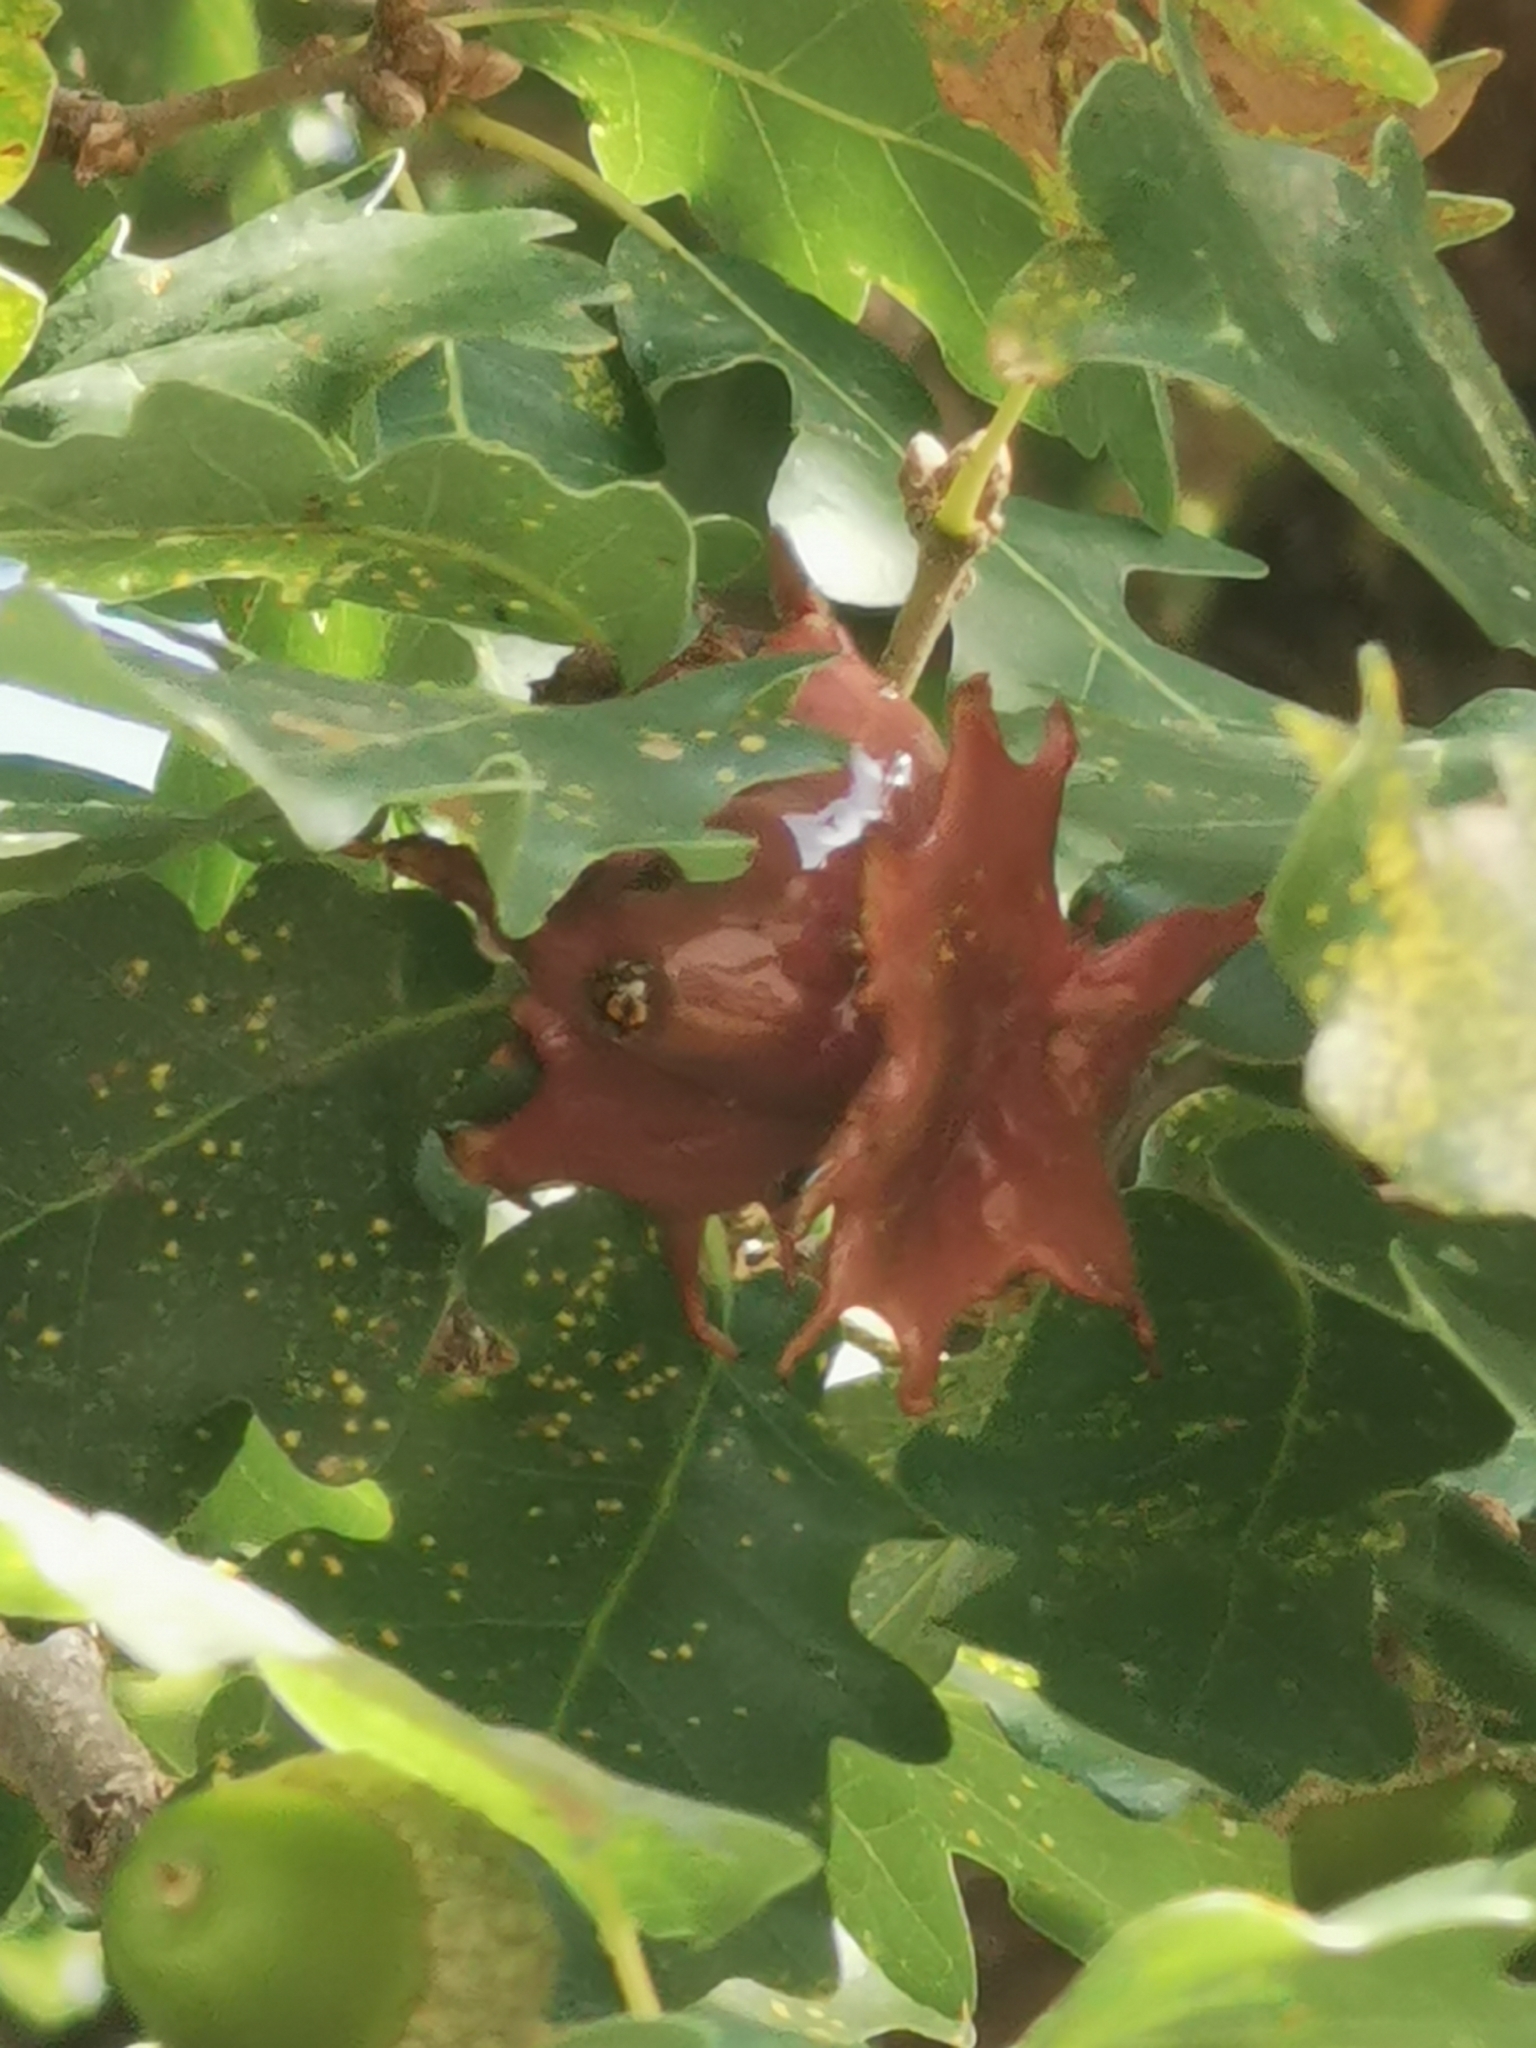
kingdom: Animalia
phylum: Arthropoda
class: Insecta
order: Hymenoptera
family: Cynipidae
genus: Andricus
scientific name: Andricus dentimitratus
